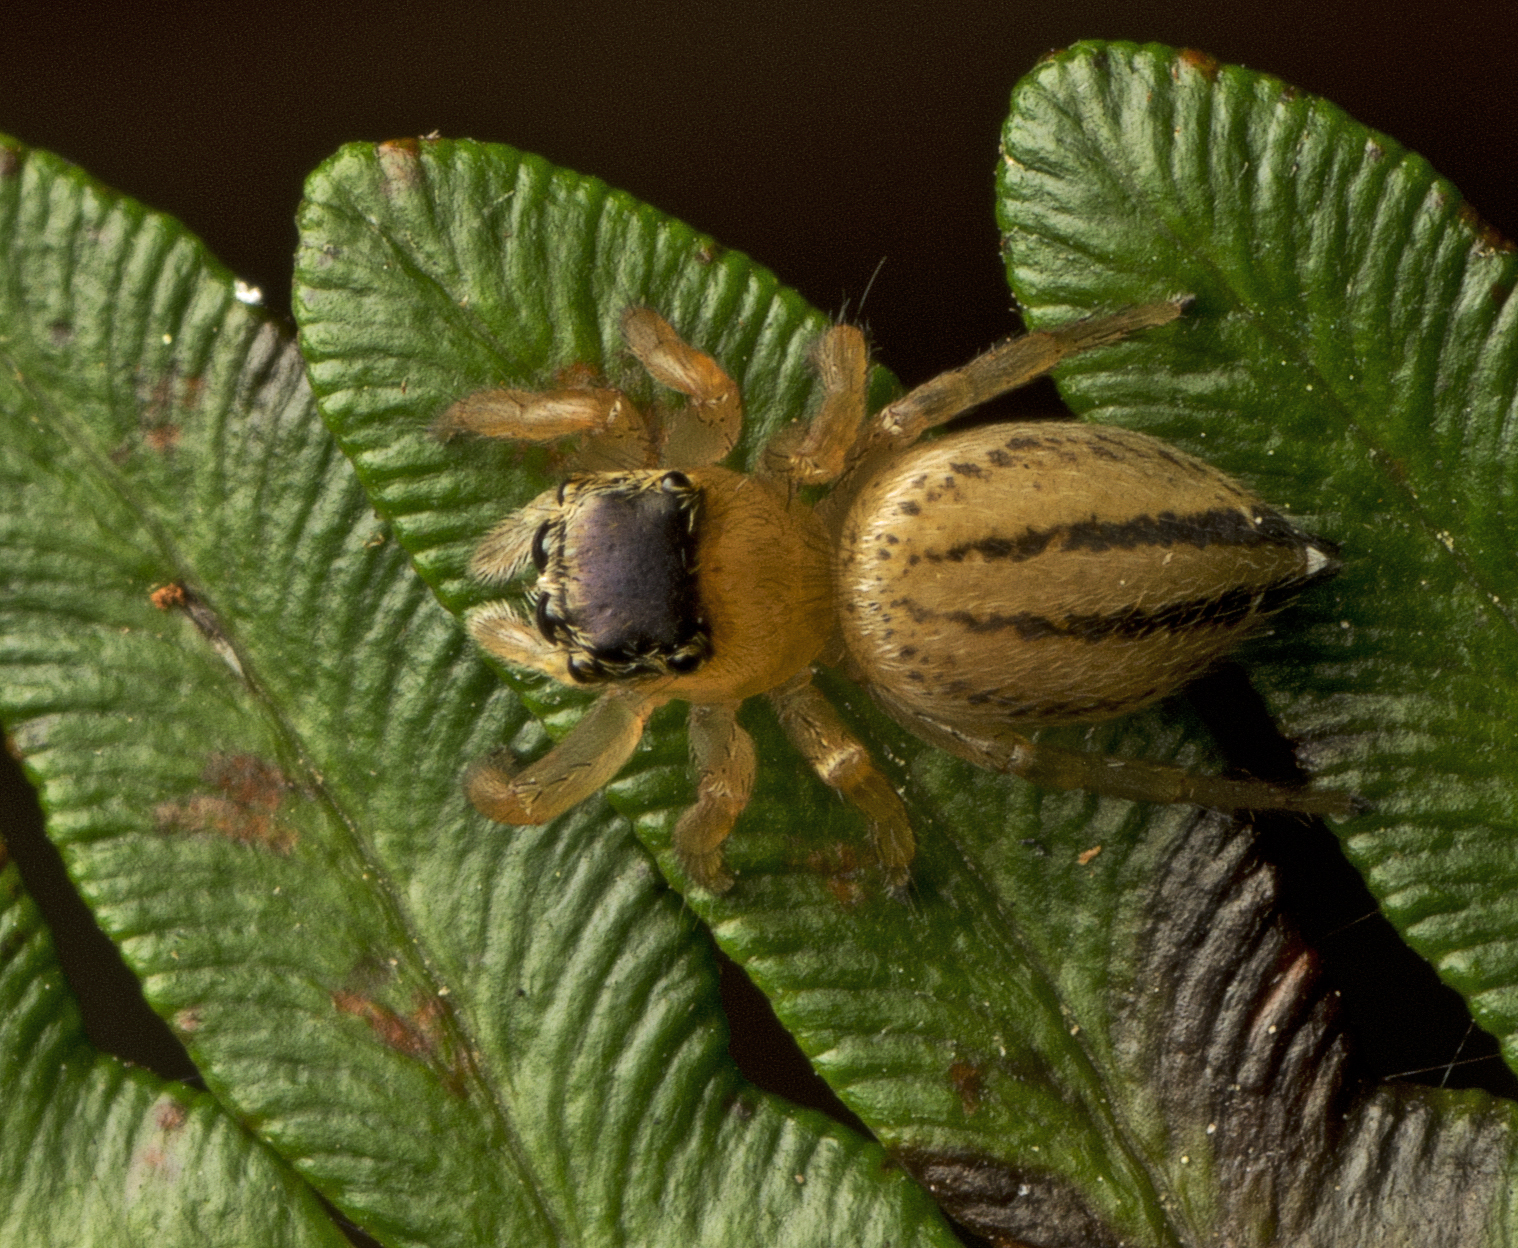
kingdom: Animalia
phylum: Arthropoda
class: Arachnida
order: Araneae
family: Salticidae
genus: Maratus
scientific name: Maratus scutulatus
